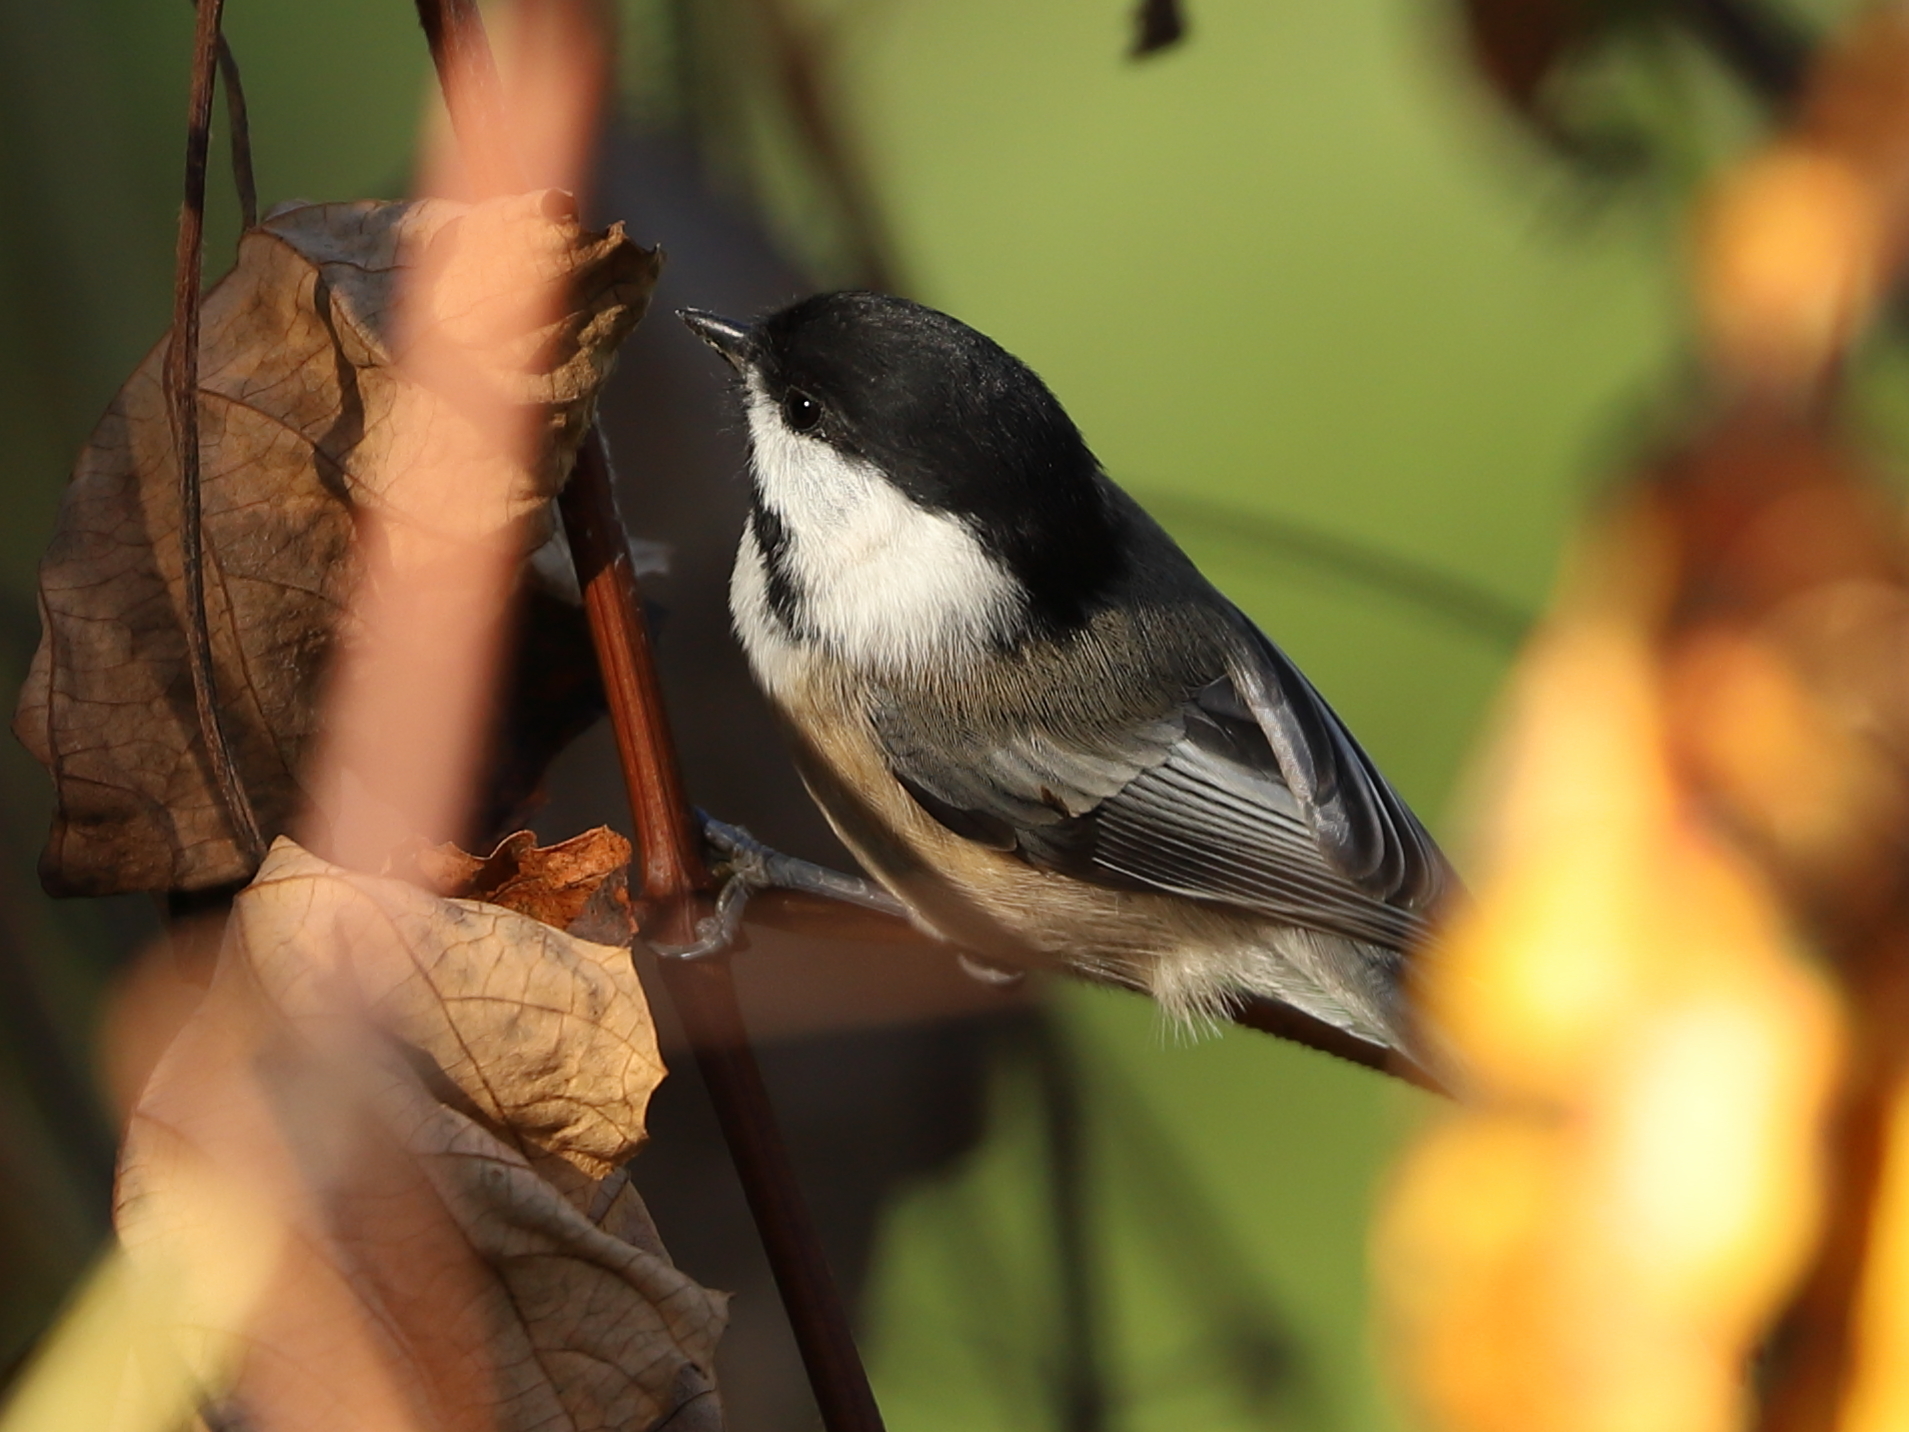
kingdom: Animalia
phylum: Chordata
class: Aves
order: Passeriformes
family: Paridae
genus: Poecile
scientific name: Poecile atricapillus
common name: Black-capped chickadee
